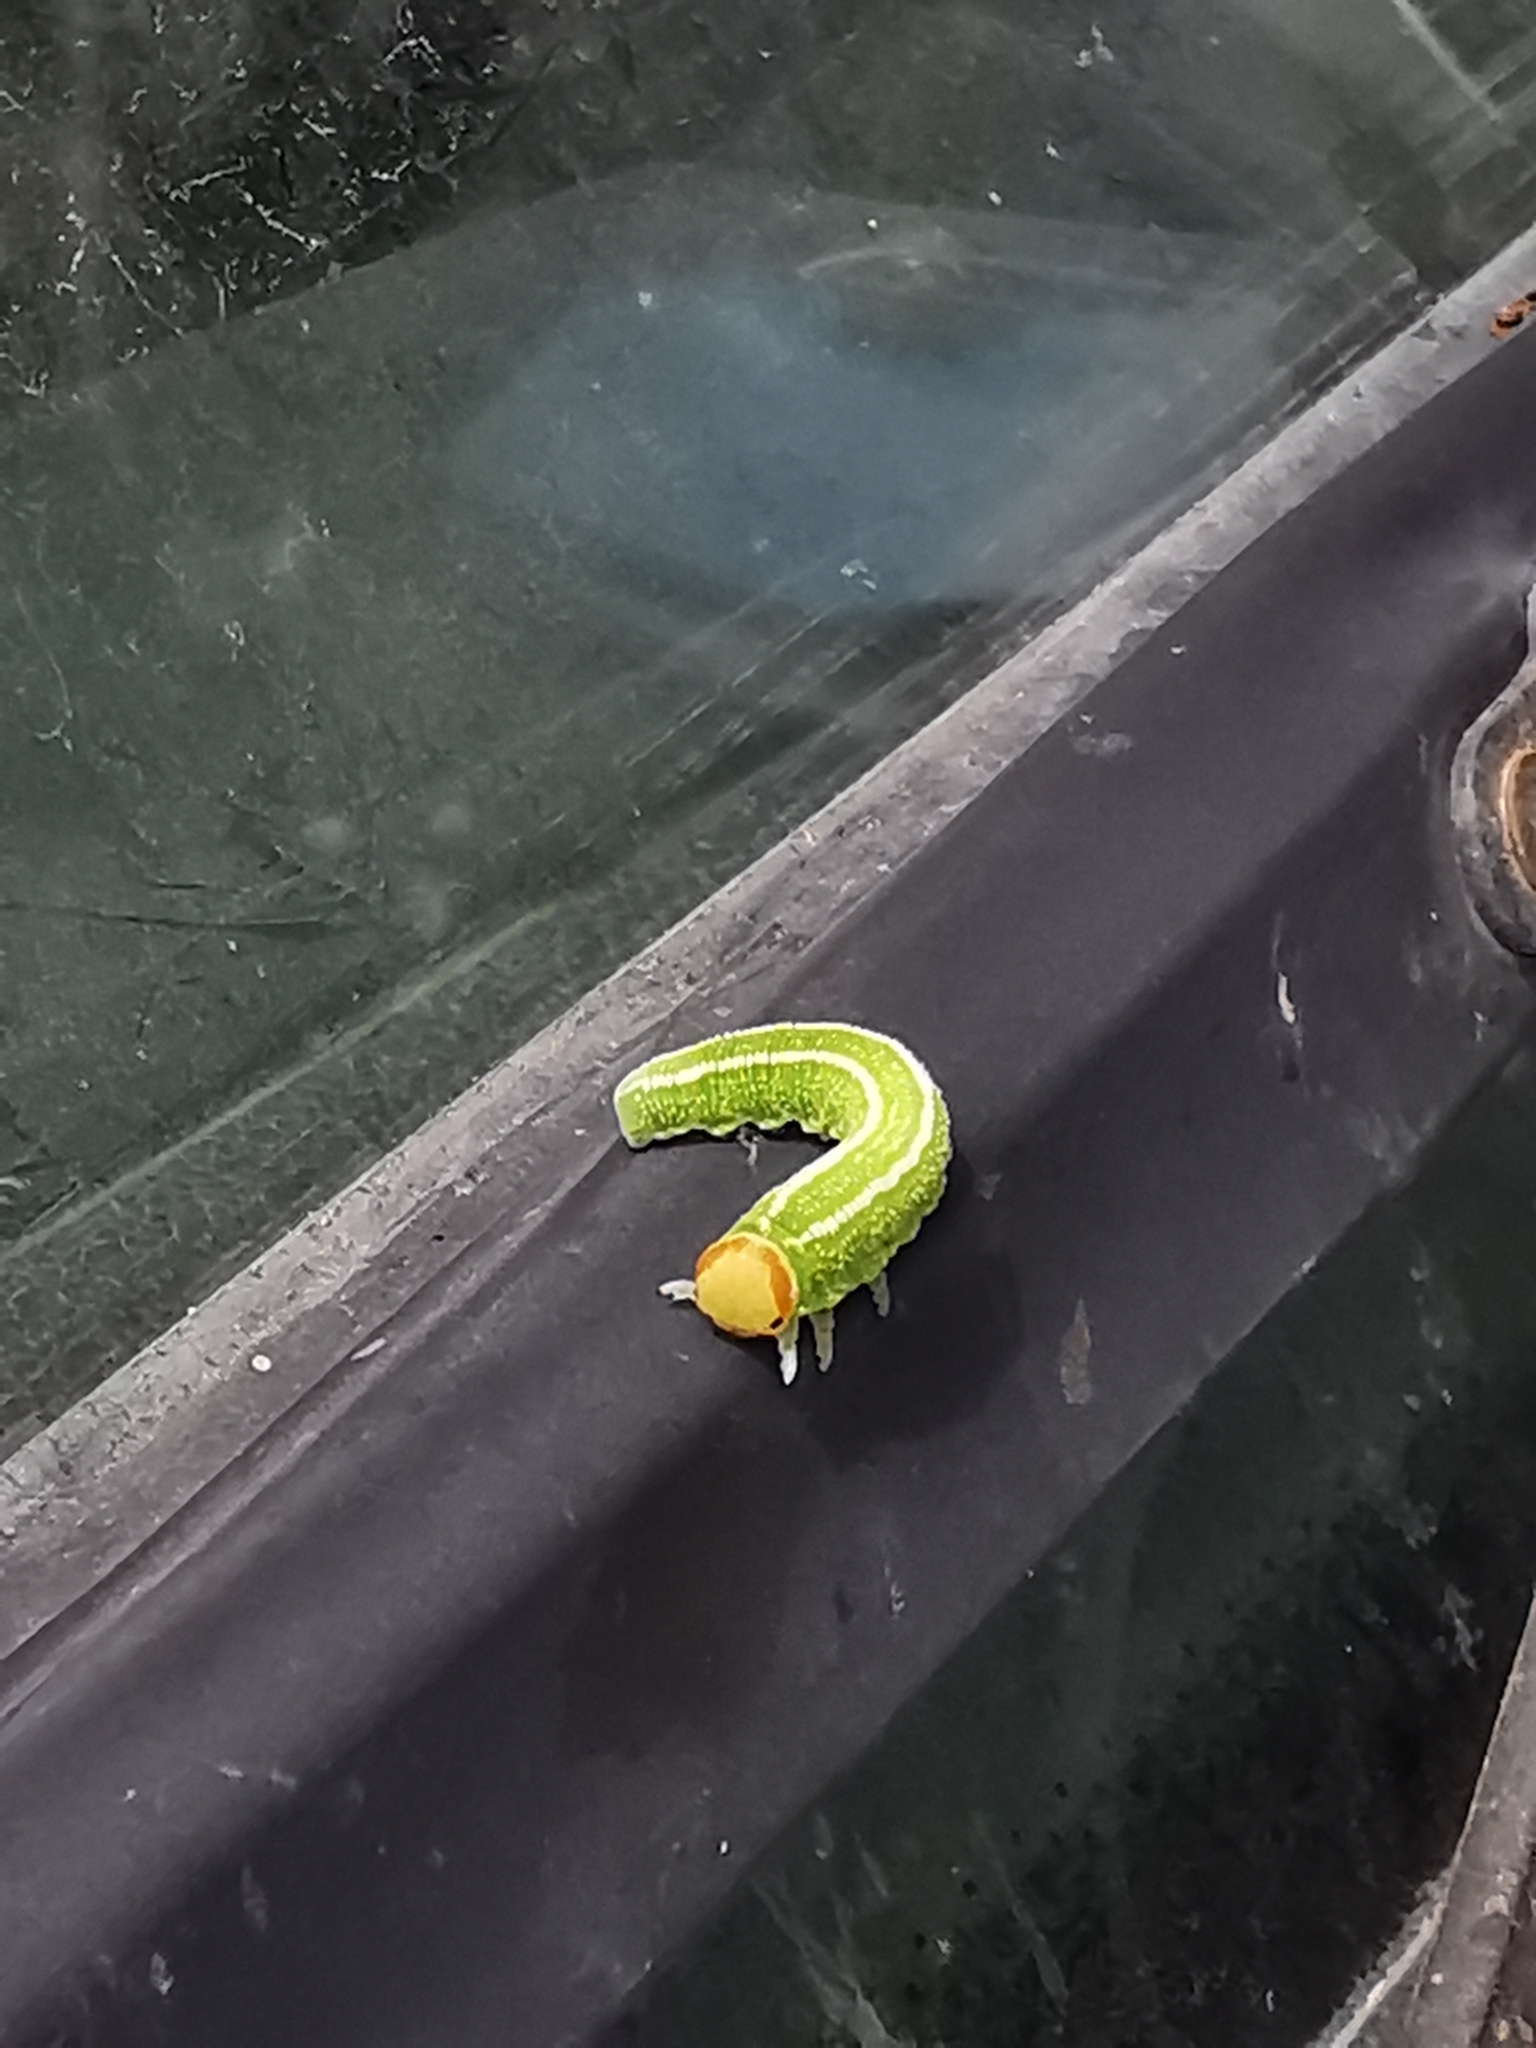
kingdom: Animalia
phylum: Arthropoda
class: Insecta
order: Hymenoptera
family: Cimbicidae
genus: Trichiosoma
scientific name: Trichiosoma sachalinense
